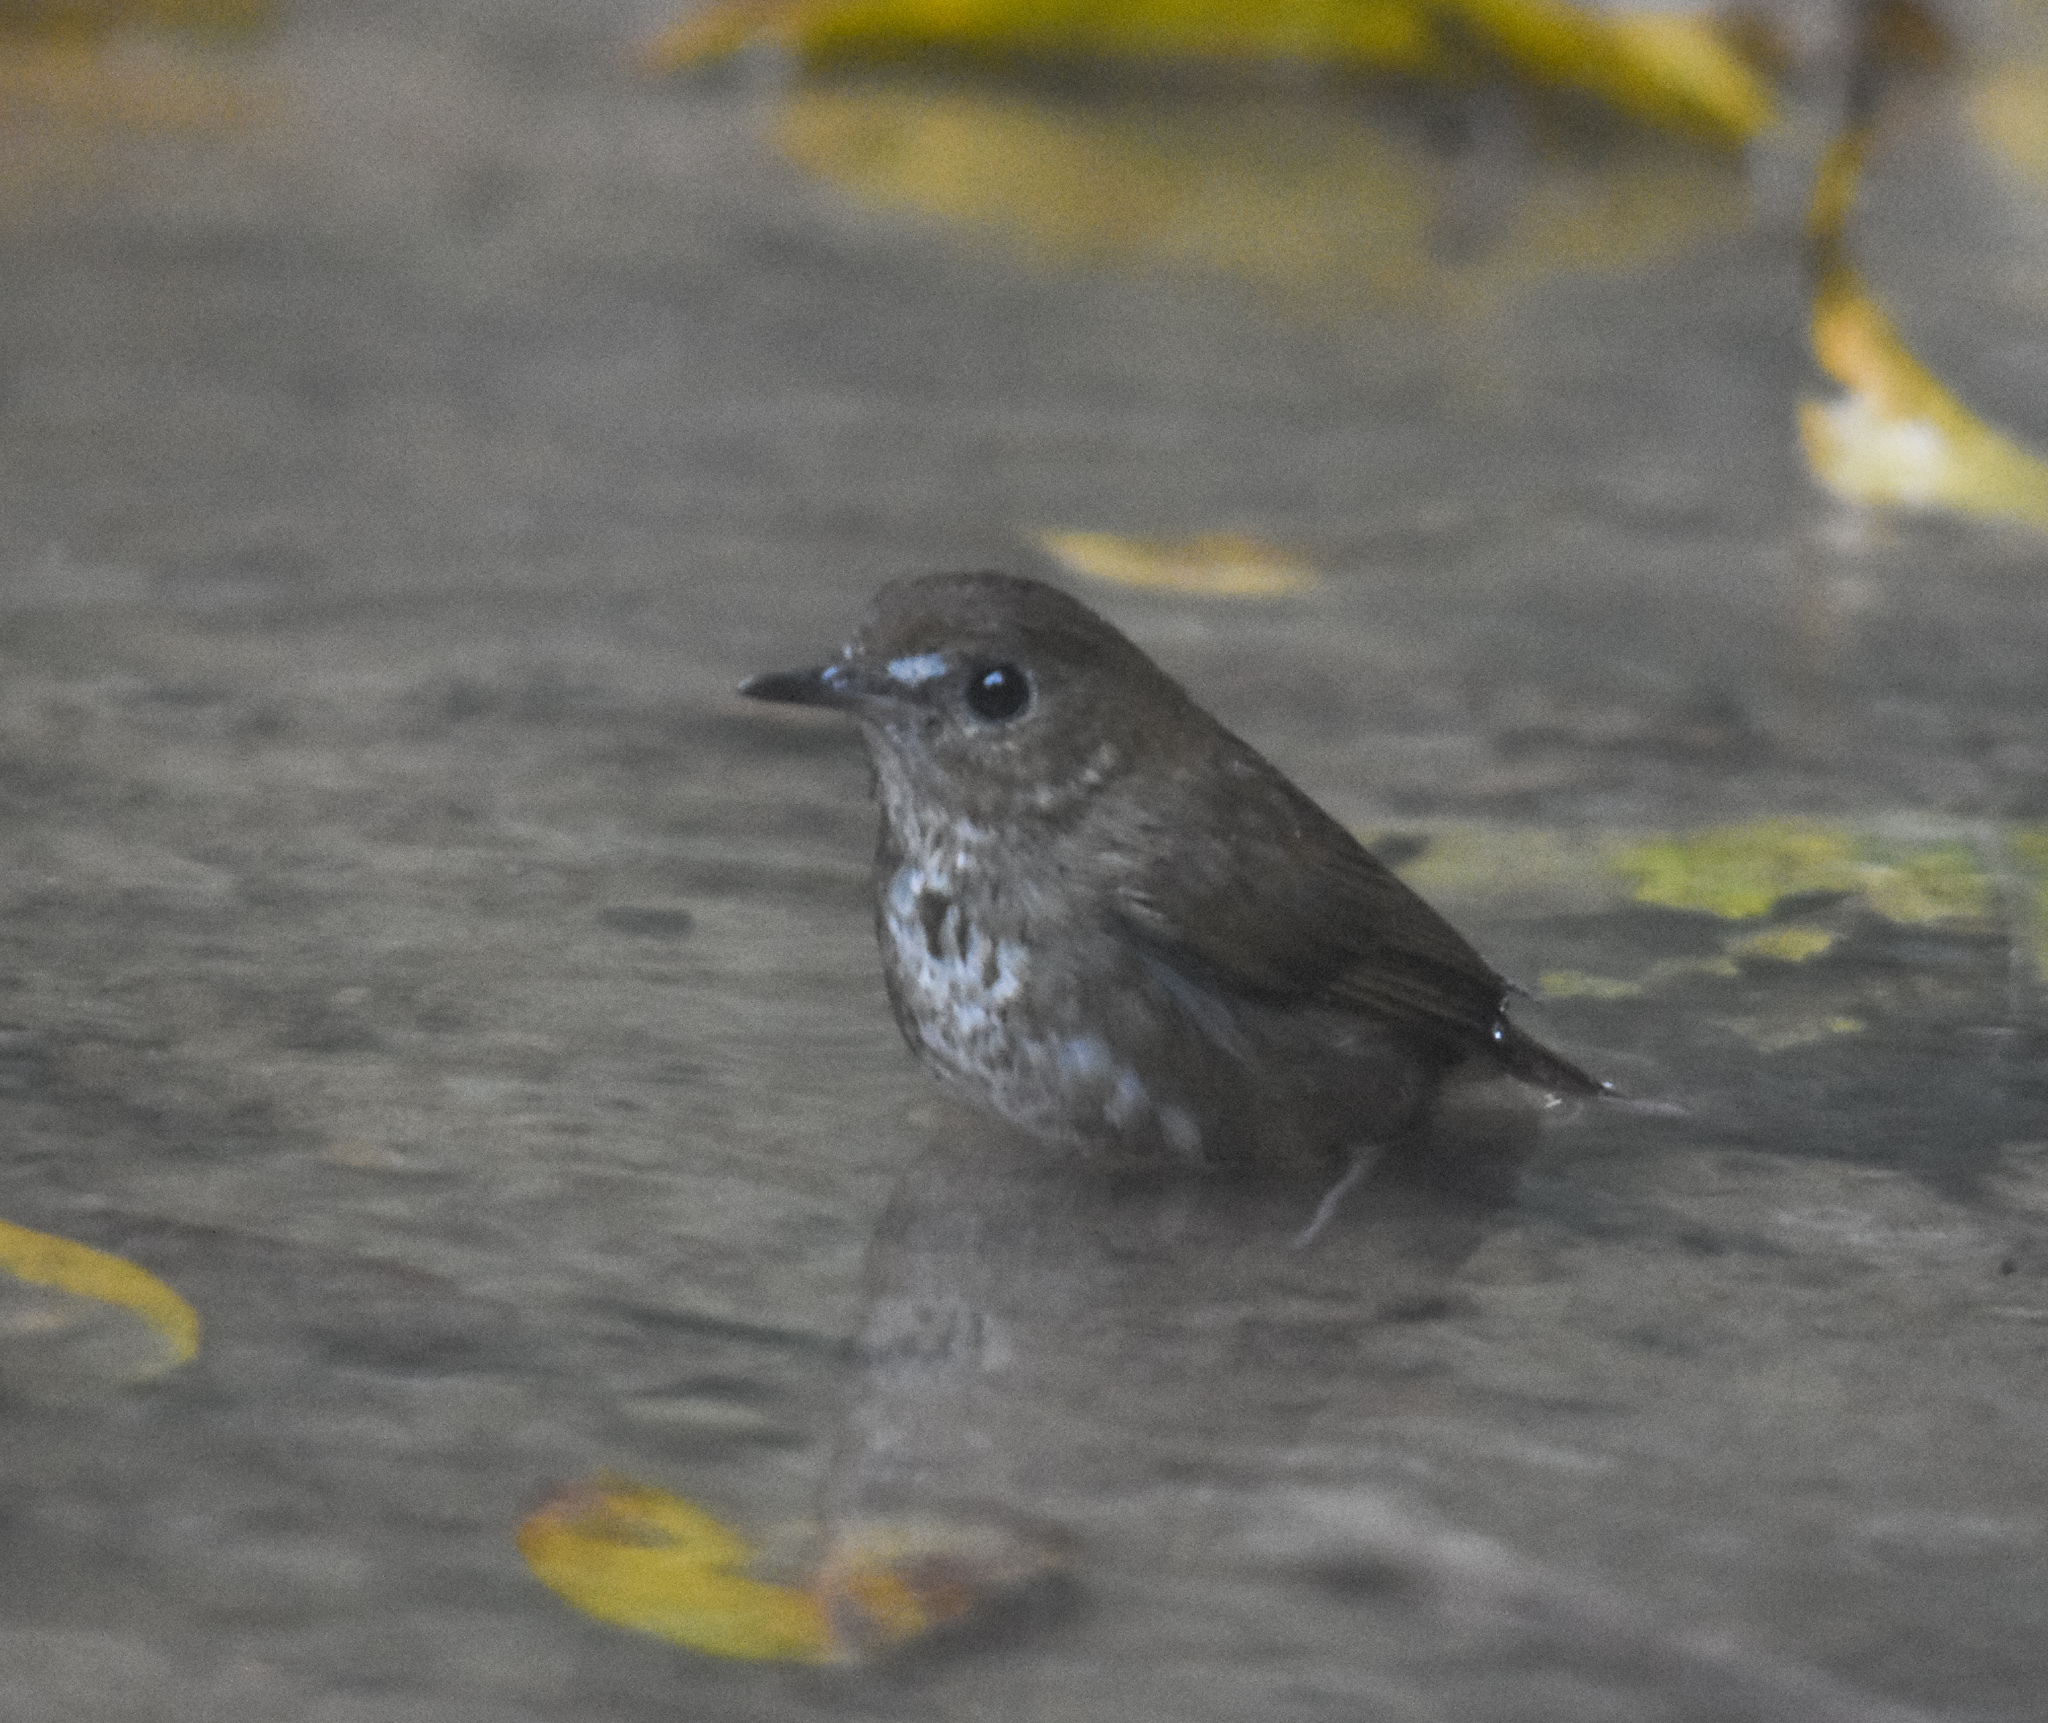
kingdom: Animalia
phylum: Chordata
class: Aves
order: Passeriformes
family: Muscicapidae
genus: Brachypteryx
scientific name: Brachypteryx leucophris
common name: Lesser shortwing
